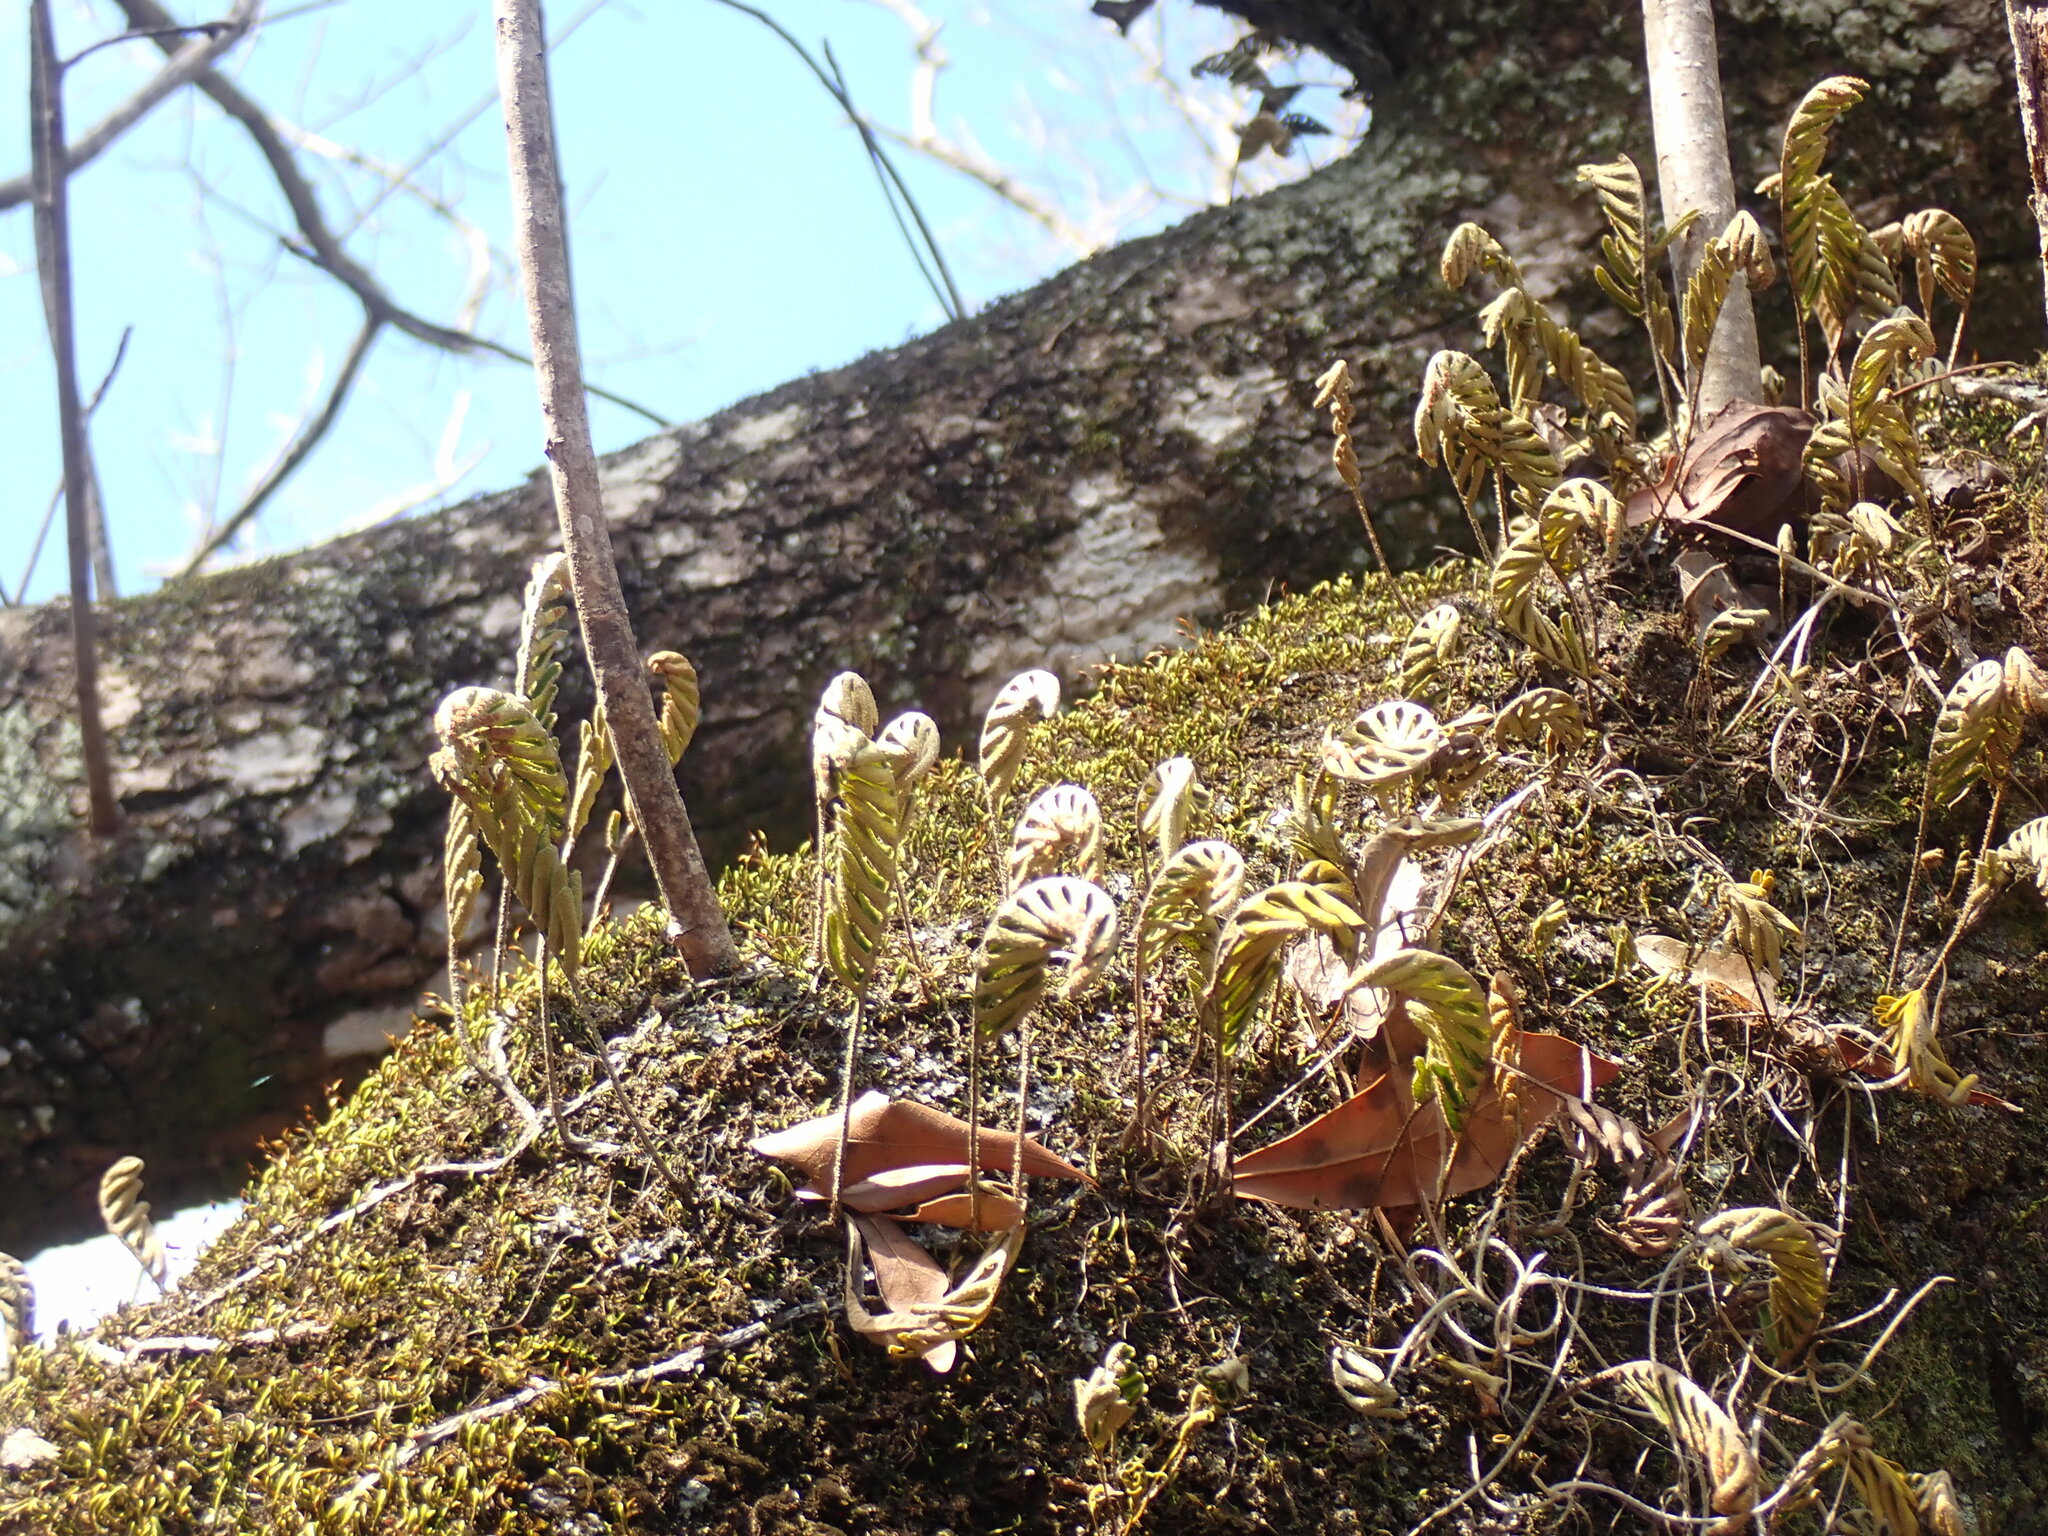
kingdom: Plantae
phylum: Tracheophyta
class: Polypodiopsida
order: Polypodiales
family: Polypodiaceae
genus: Pleopeltis
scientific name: Pleopeltis michauxiana
